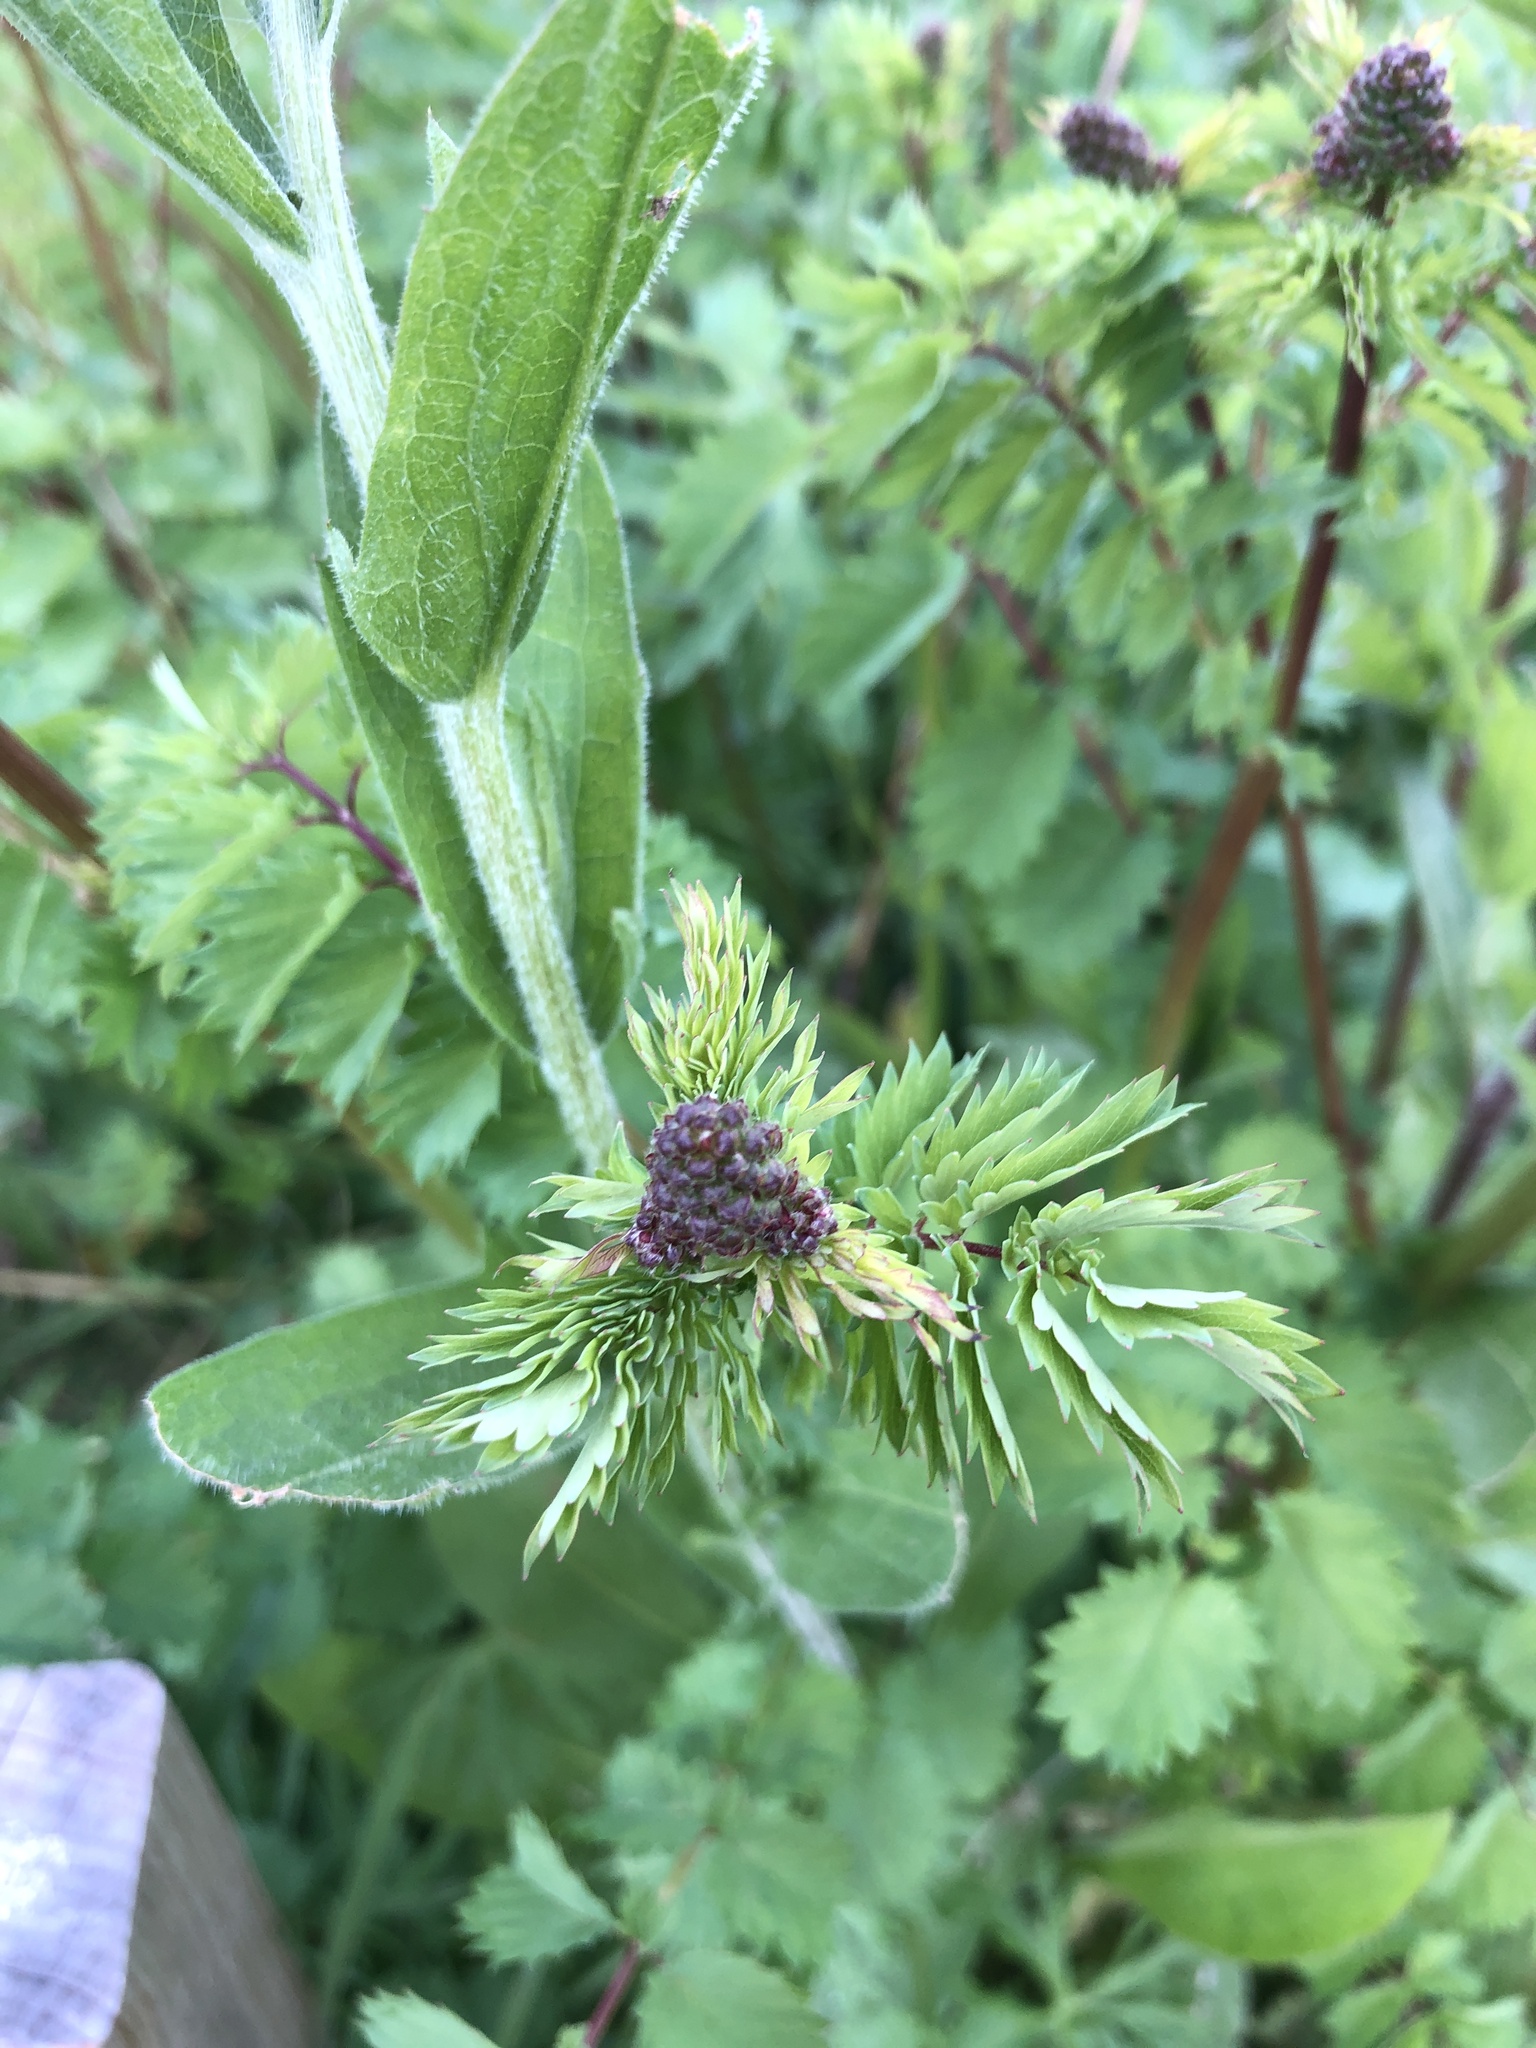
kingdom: Plantae
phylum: Tracheophyta
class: Magnoliopsida
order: Rosales
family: Rosaceae
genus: Poterium
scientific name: Poterium sanguisorba
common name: Salad burnet
